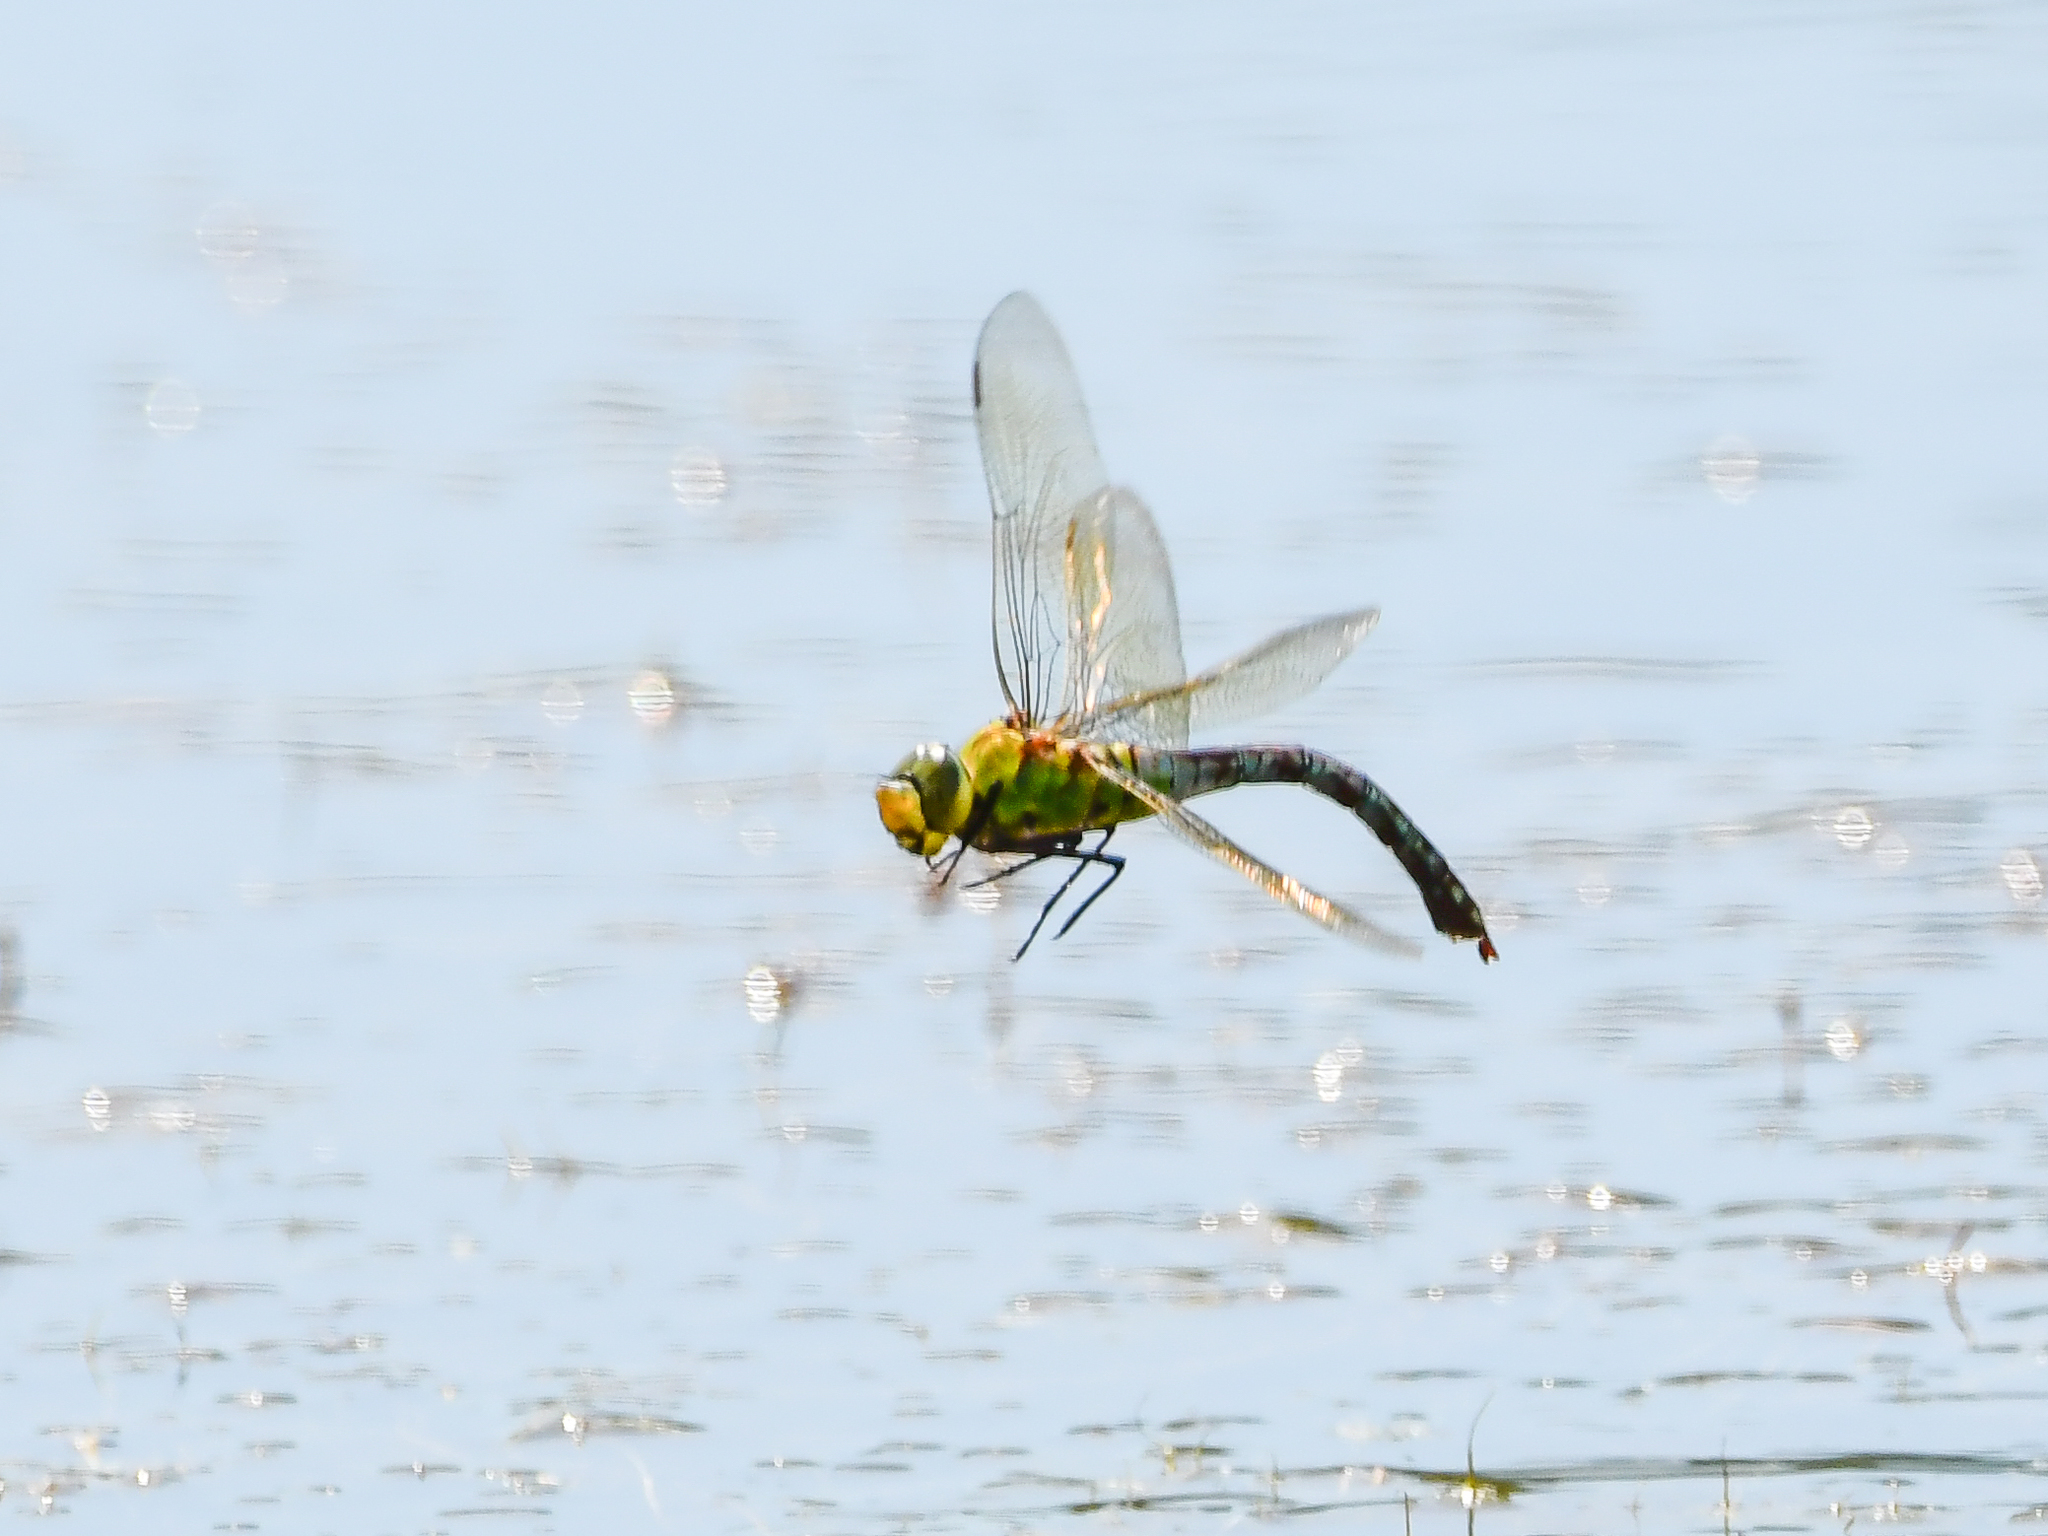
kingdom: Animalia
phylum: Arthropoda
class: Insecta
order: Odonata
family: Aeshnidae
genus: Anax
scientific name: Anax imperator
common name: Emperor dragonfly
